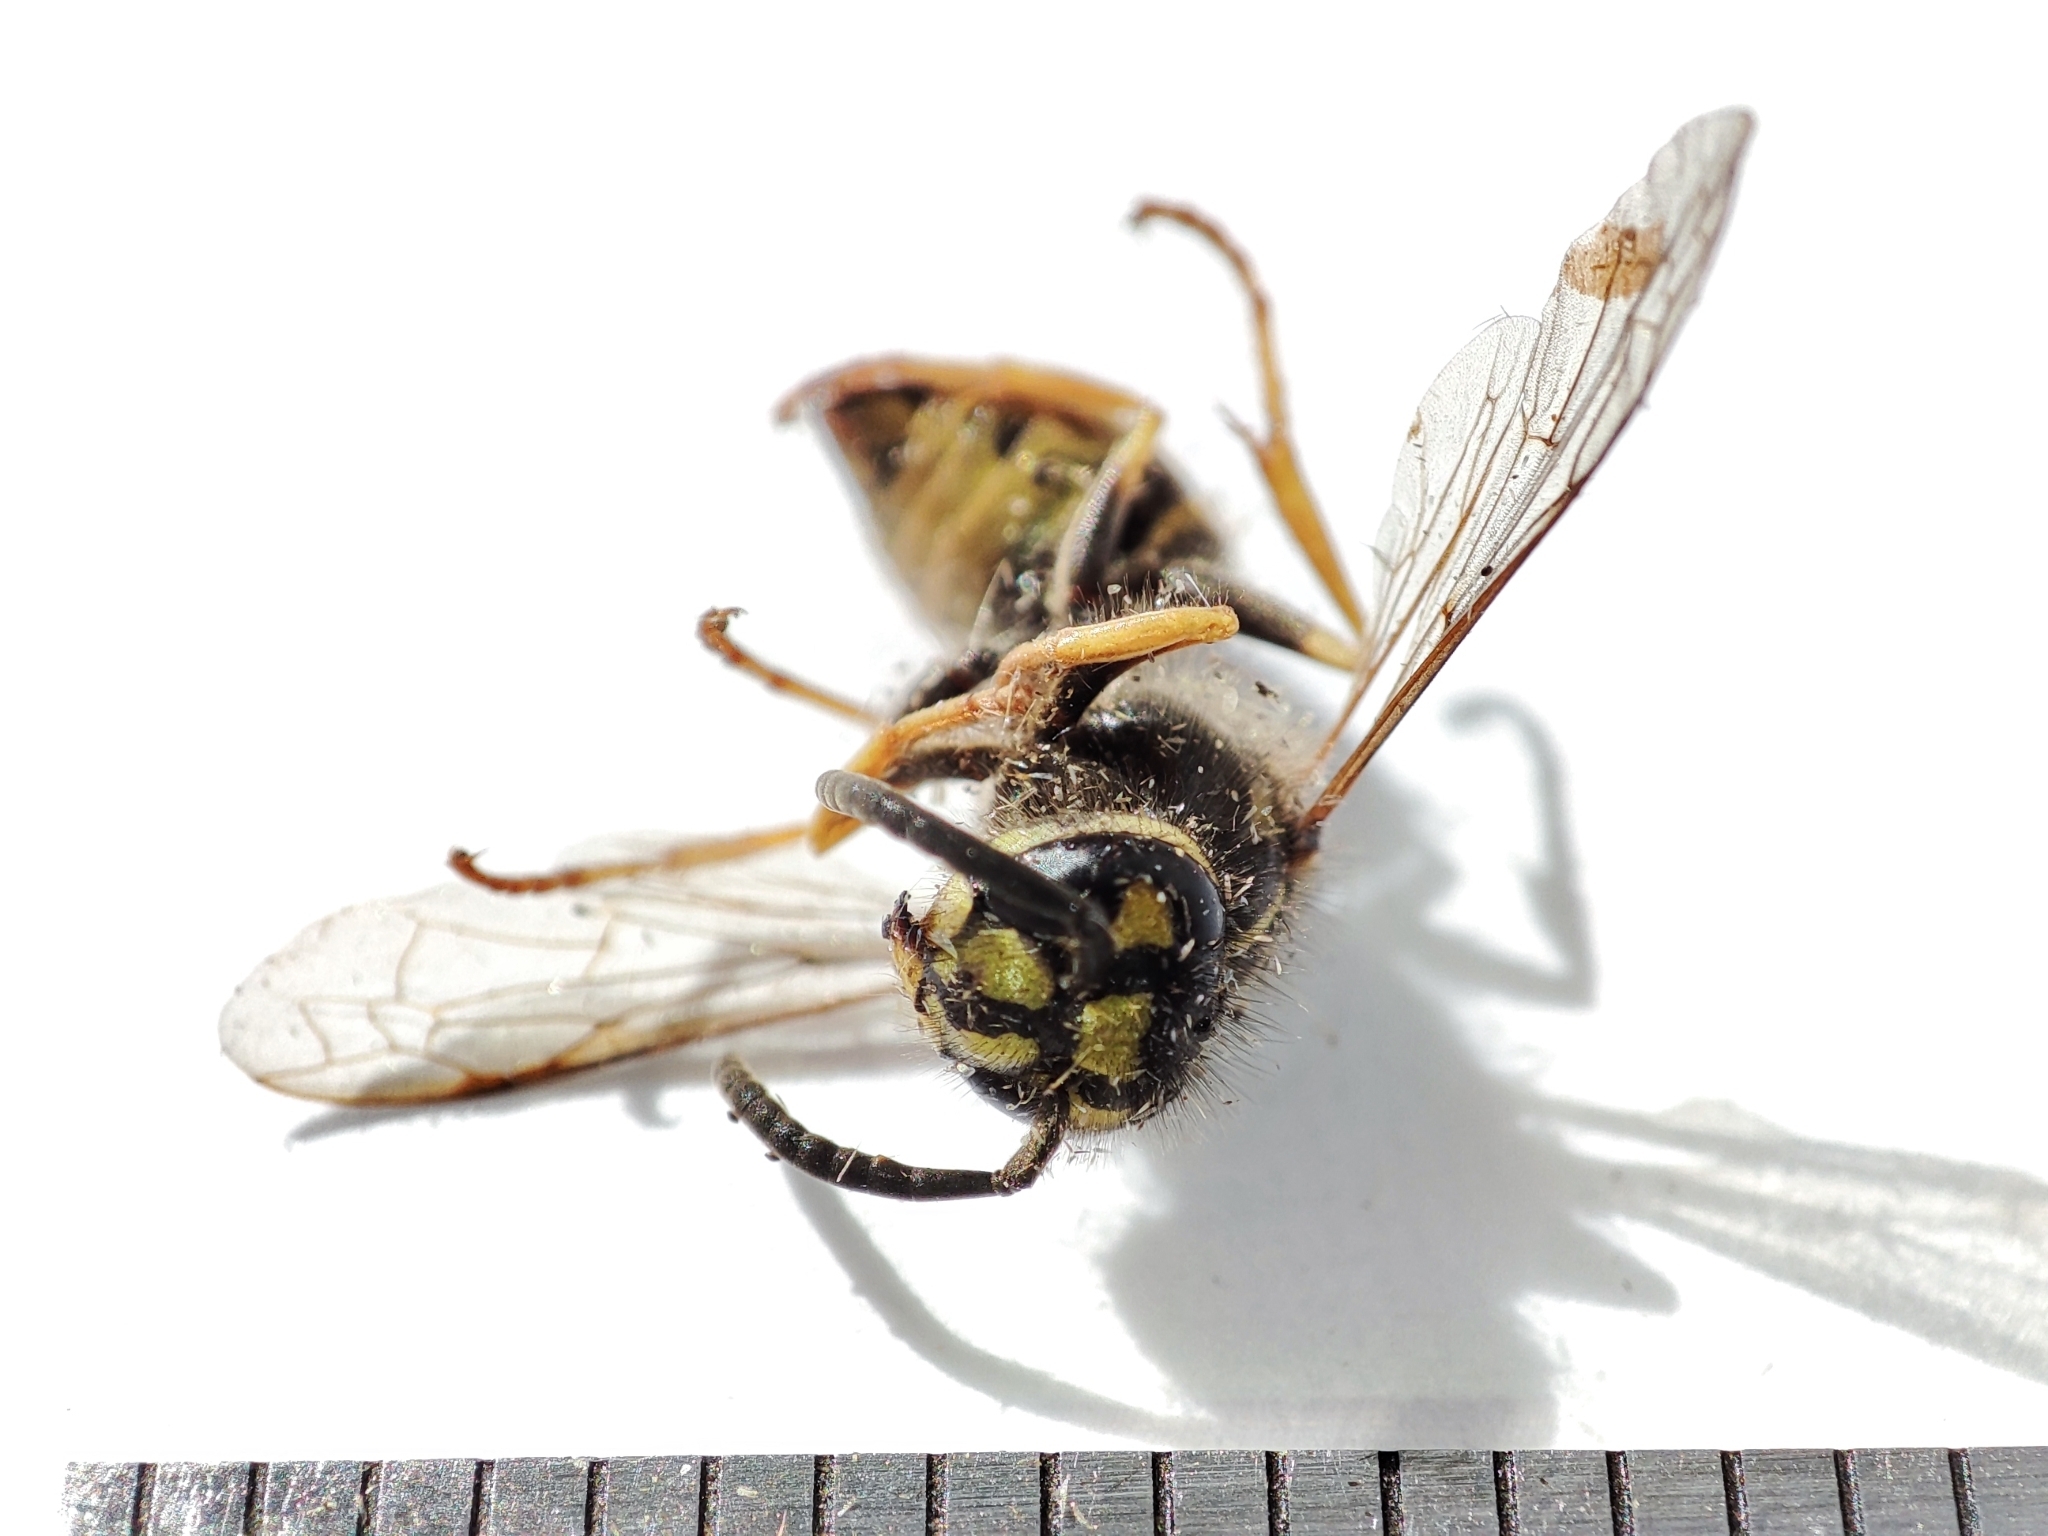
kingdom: Animalia
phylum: Arthropoda
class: Insecta
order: Hymenoptera
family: Vespidae
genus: Vespula
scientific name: Vespula vulgaris
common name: Common wasp
